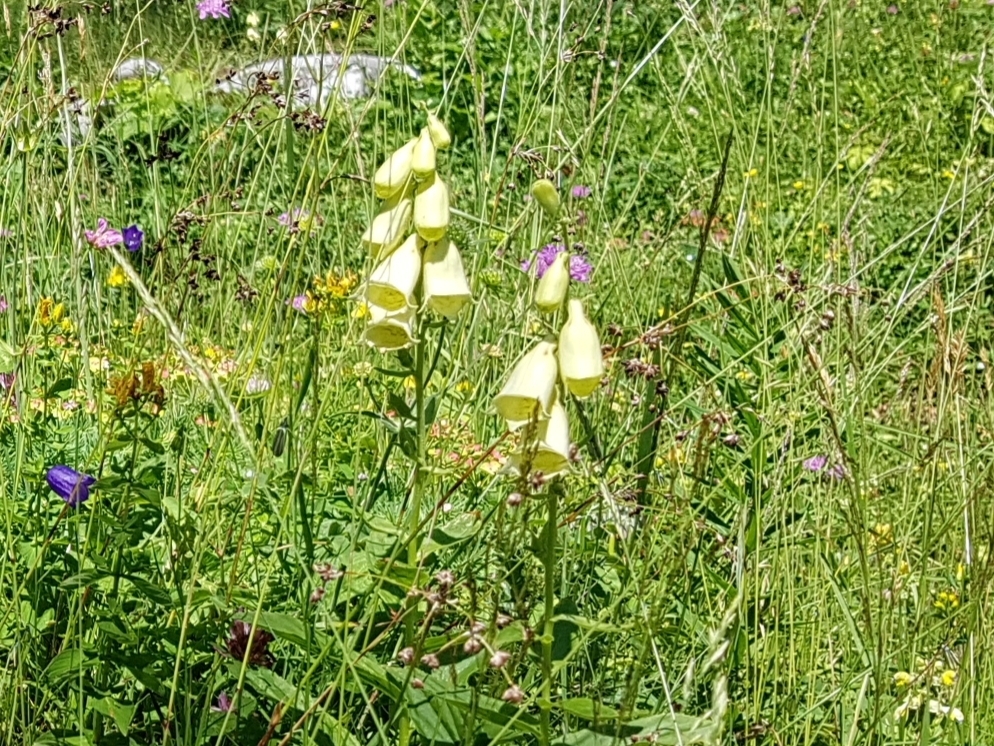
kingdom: Plantae
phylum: Tracheophyta
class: Magnoliopsida
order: Lamiales
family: Plantaginaceae
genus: Digitalis
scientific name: Digitalis grandiflora
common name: Yellow foxglove
